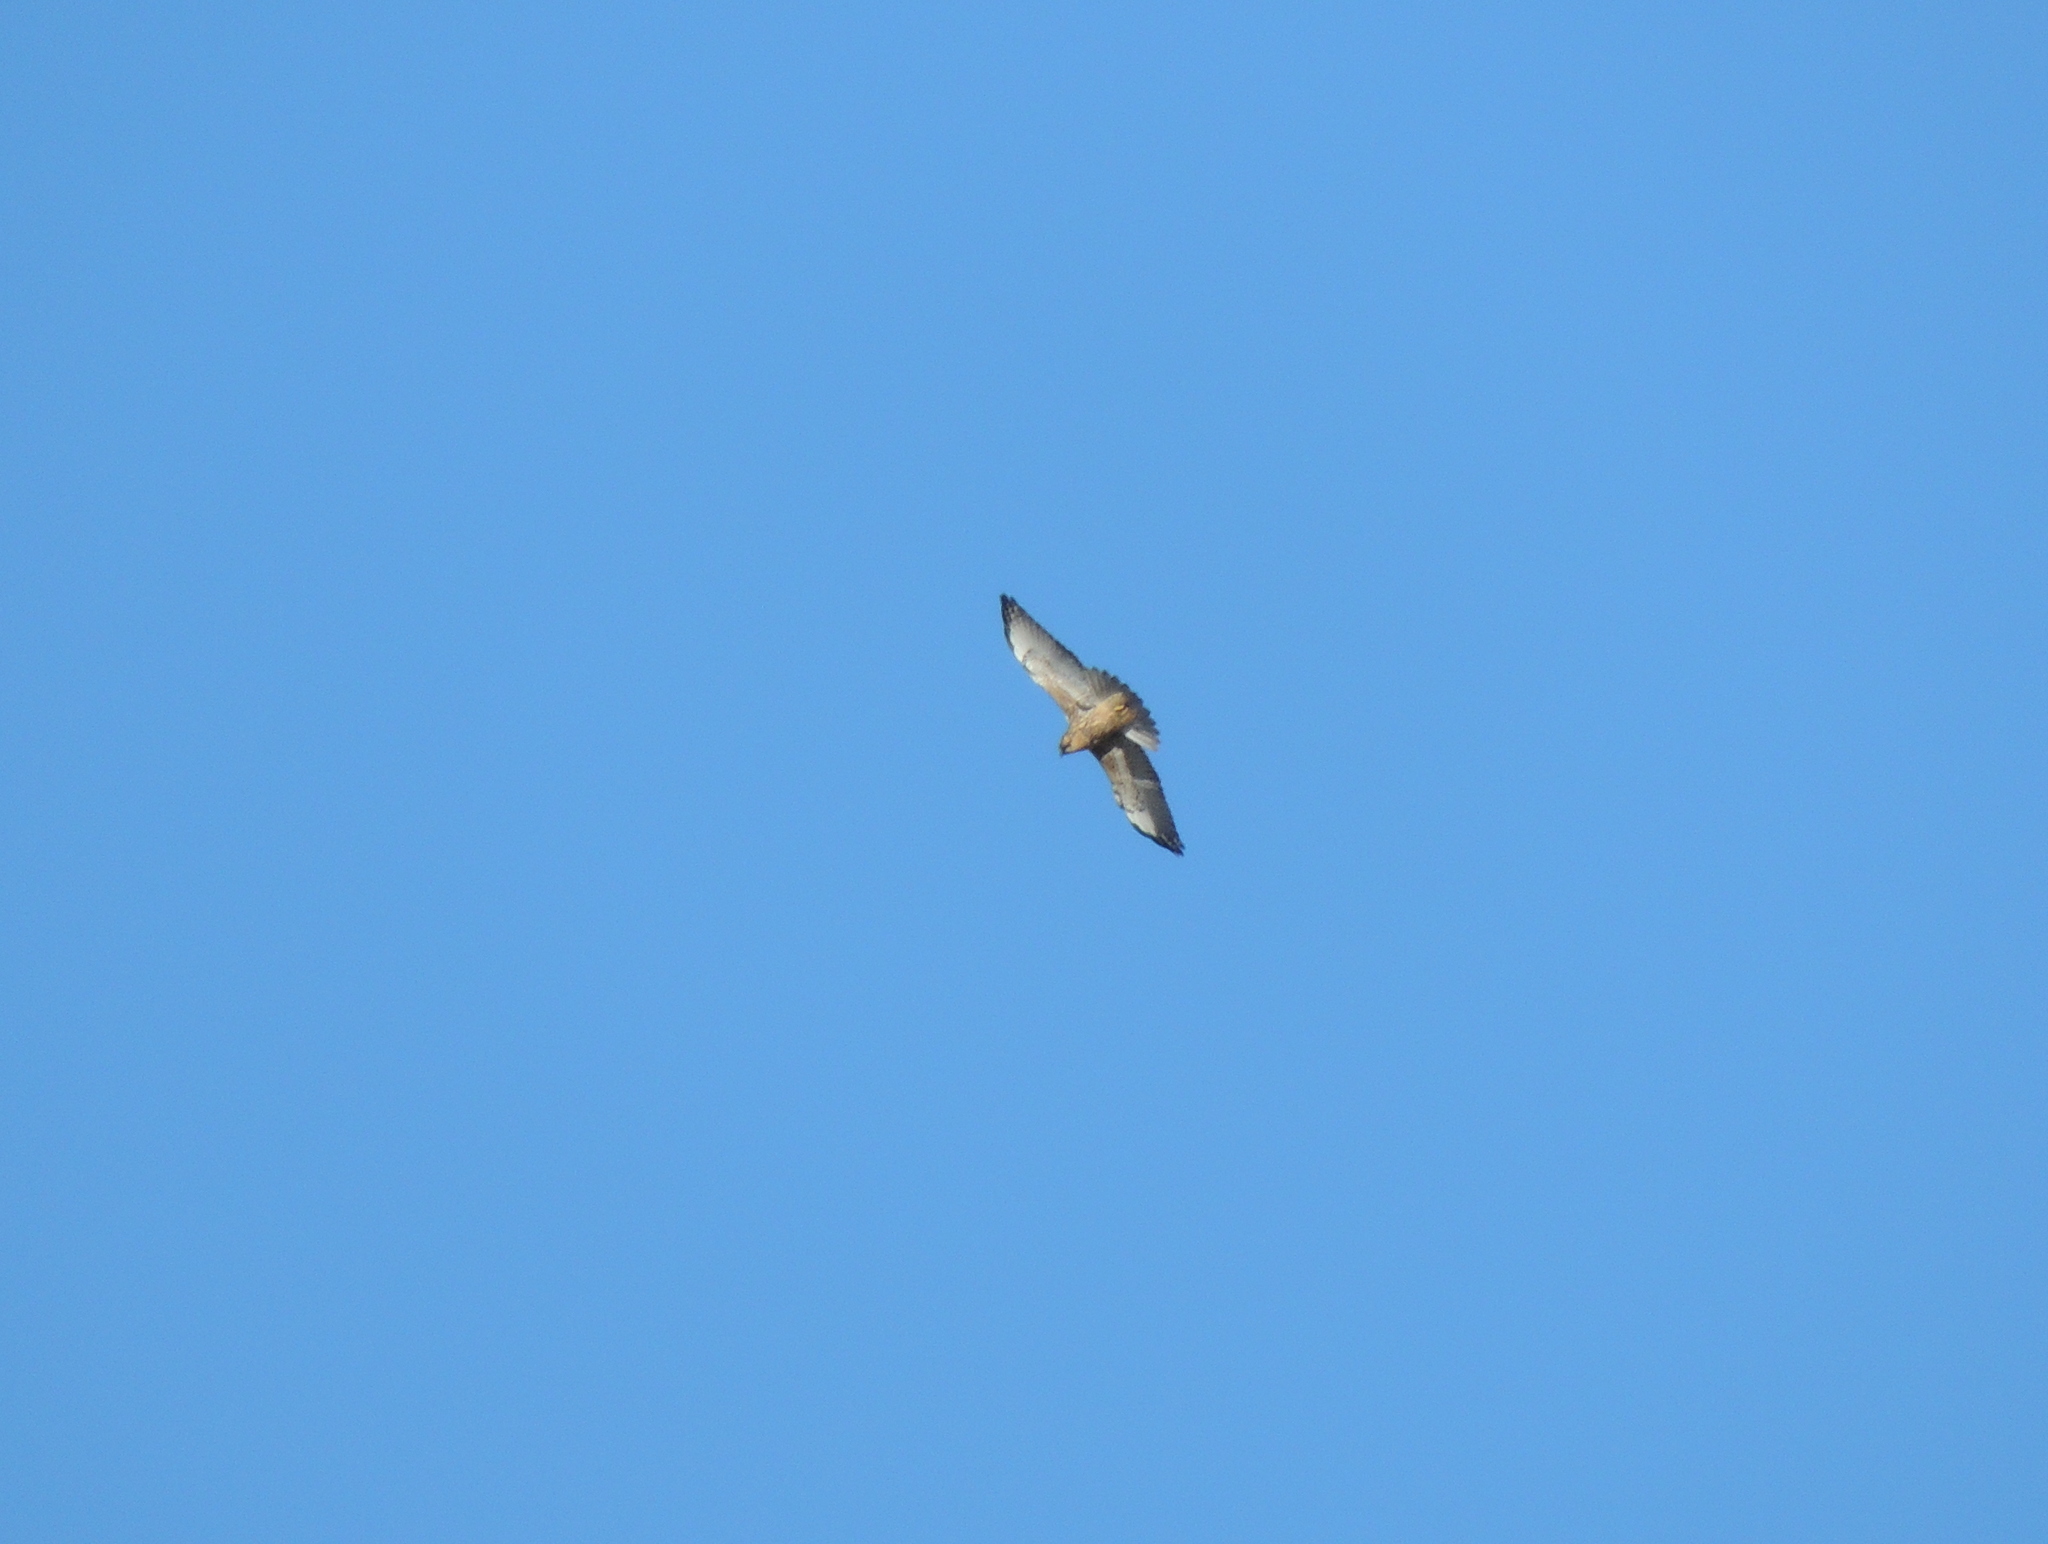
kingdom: Animalia
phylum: Chordata
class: Aves
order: Accipitriformes
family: Accipitridae
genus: Buteo
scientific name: Buteo polyosoma
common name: Variable hawk
